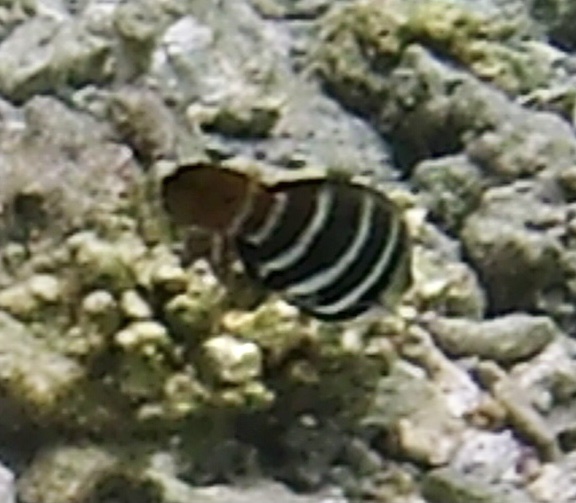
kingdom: Animalia
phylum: Chordata
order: Perciformes
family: Labridae
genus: Hemigymnus
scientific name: Hemigymnus fasciatus
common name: Barred thicklip
